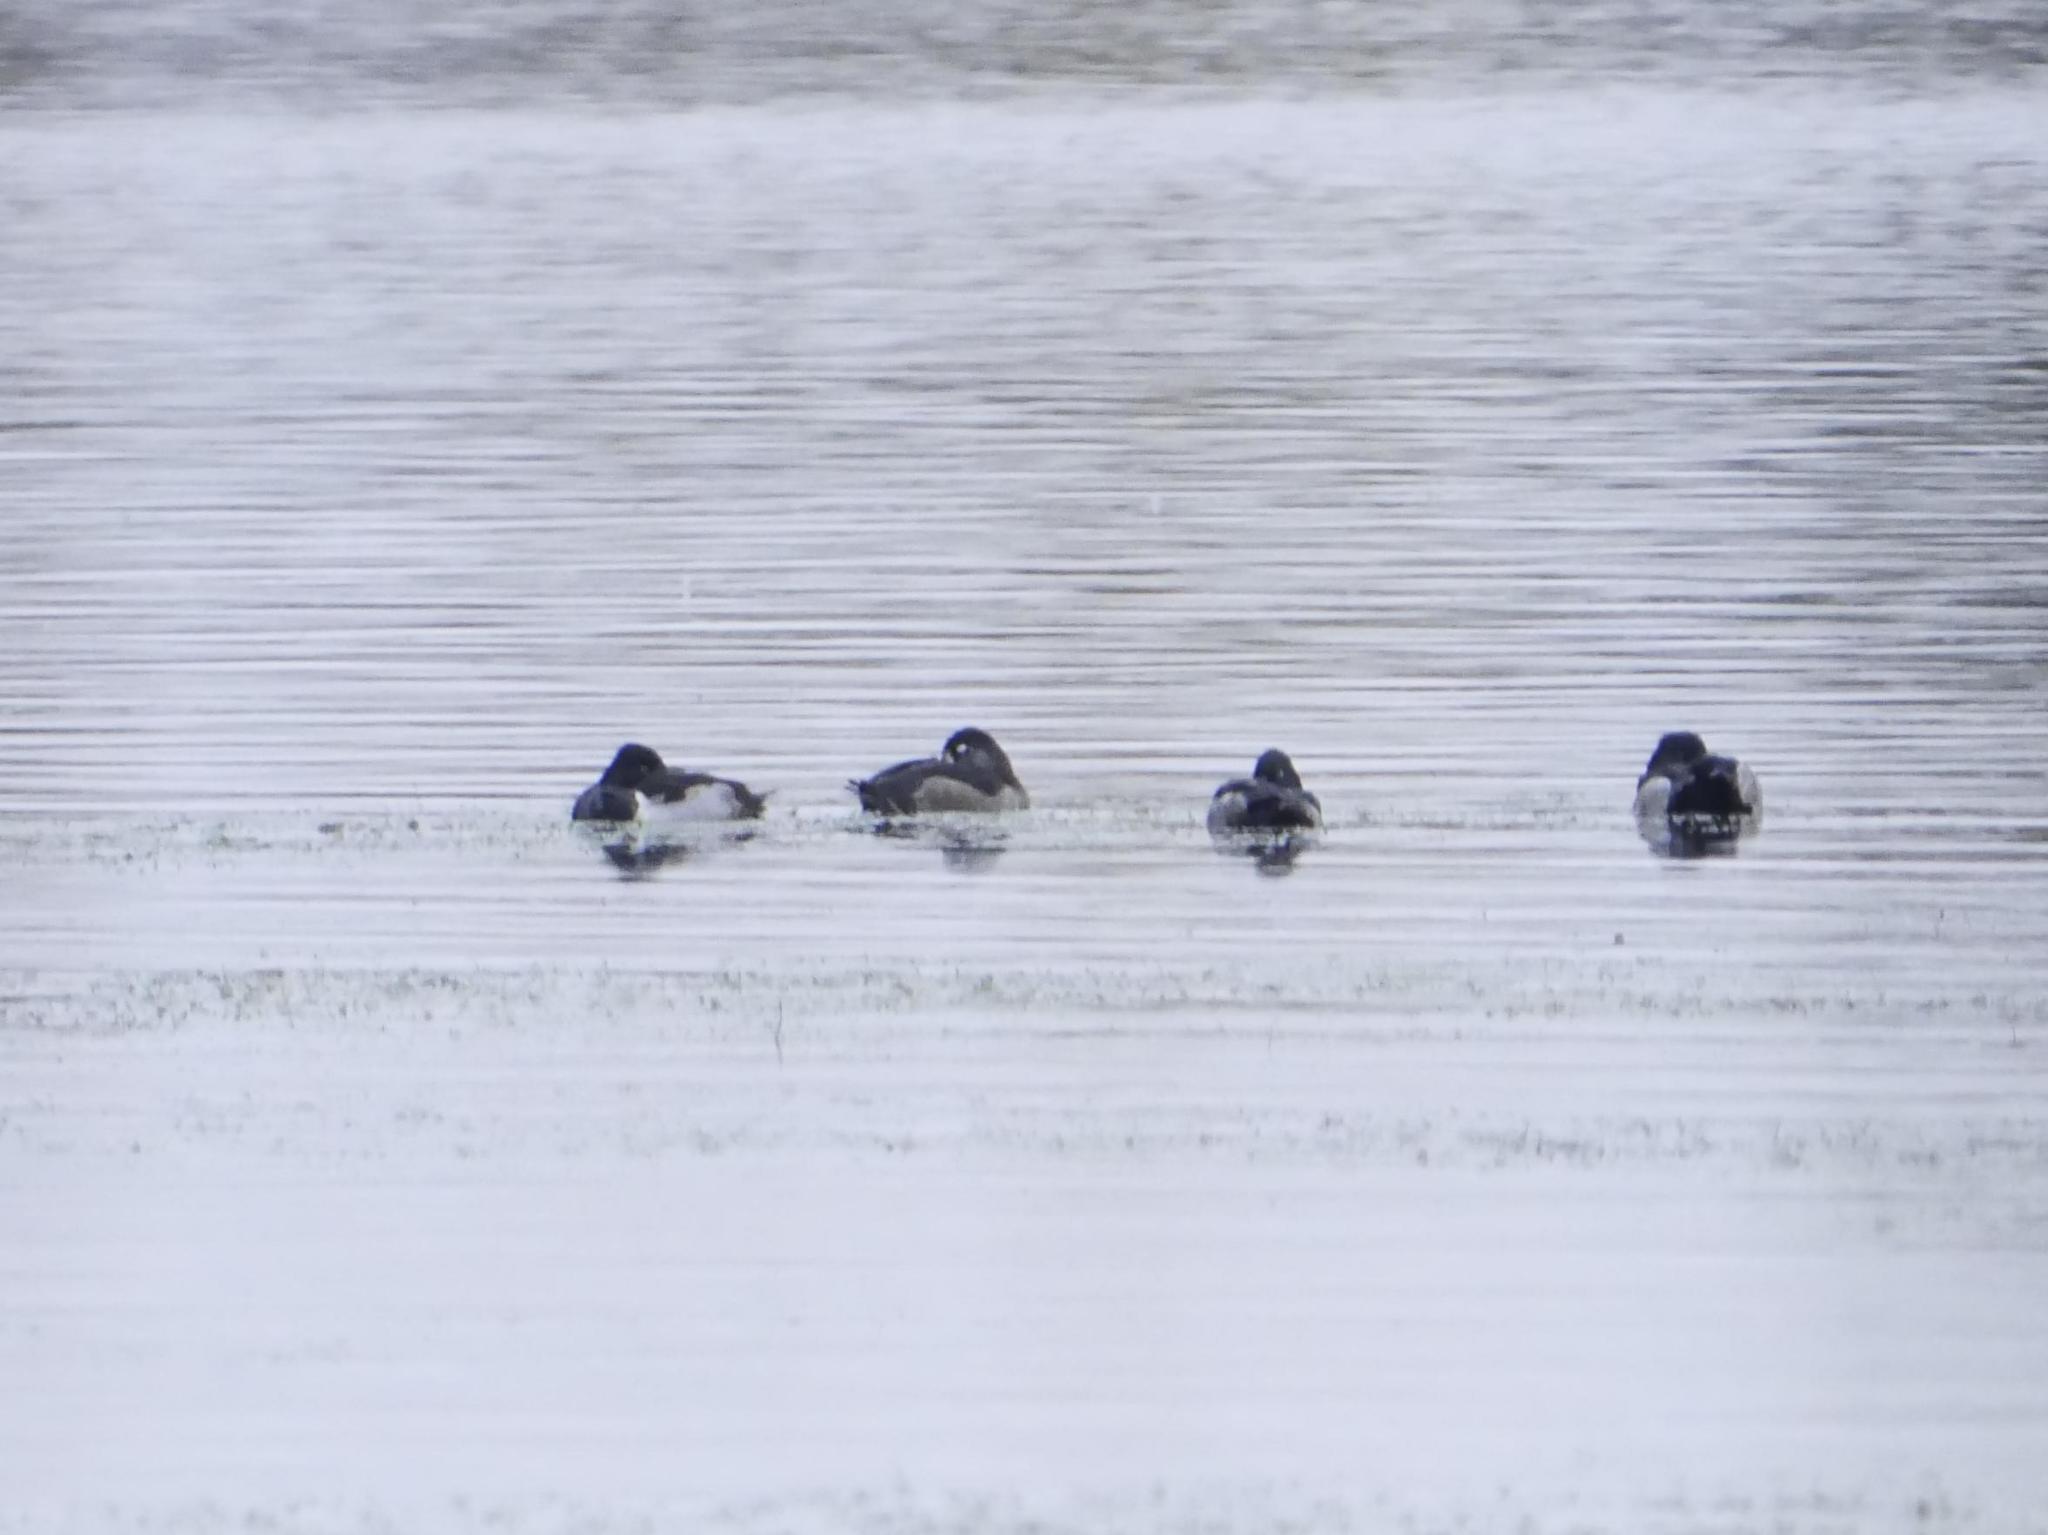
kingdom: Animalia
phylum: Chordata
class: Aves
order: Anseriformes
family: Anatidae
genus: Aythya
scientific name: Aythya collaris
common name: Ring-necked duck
